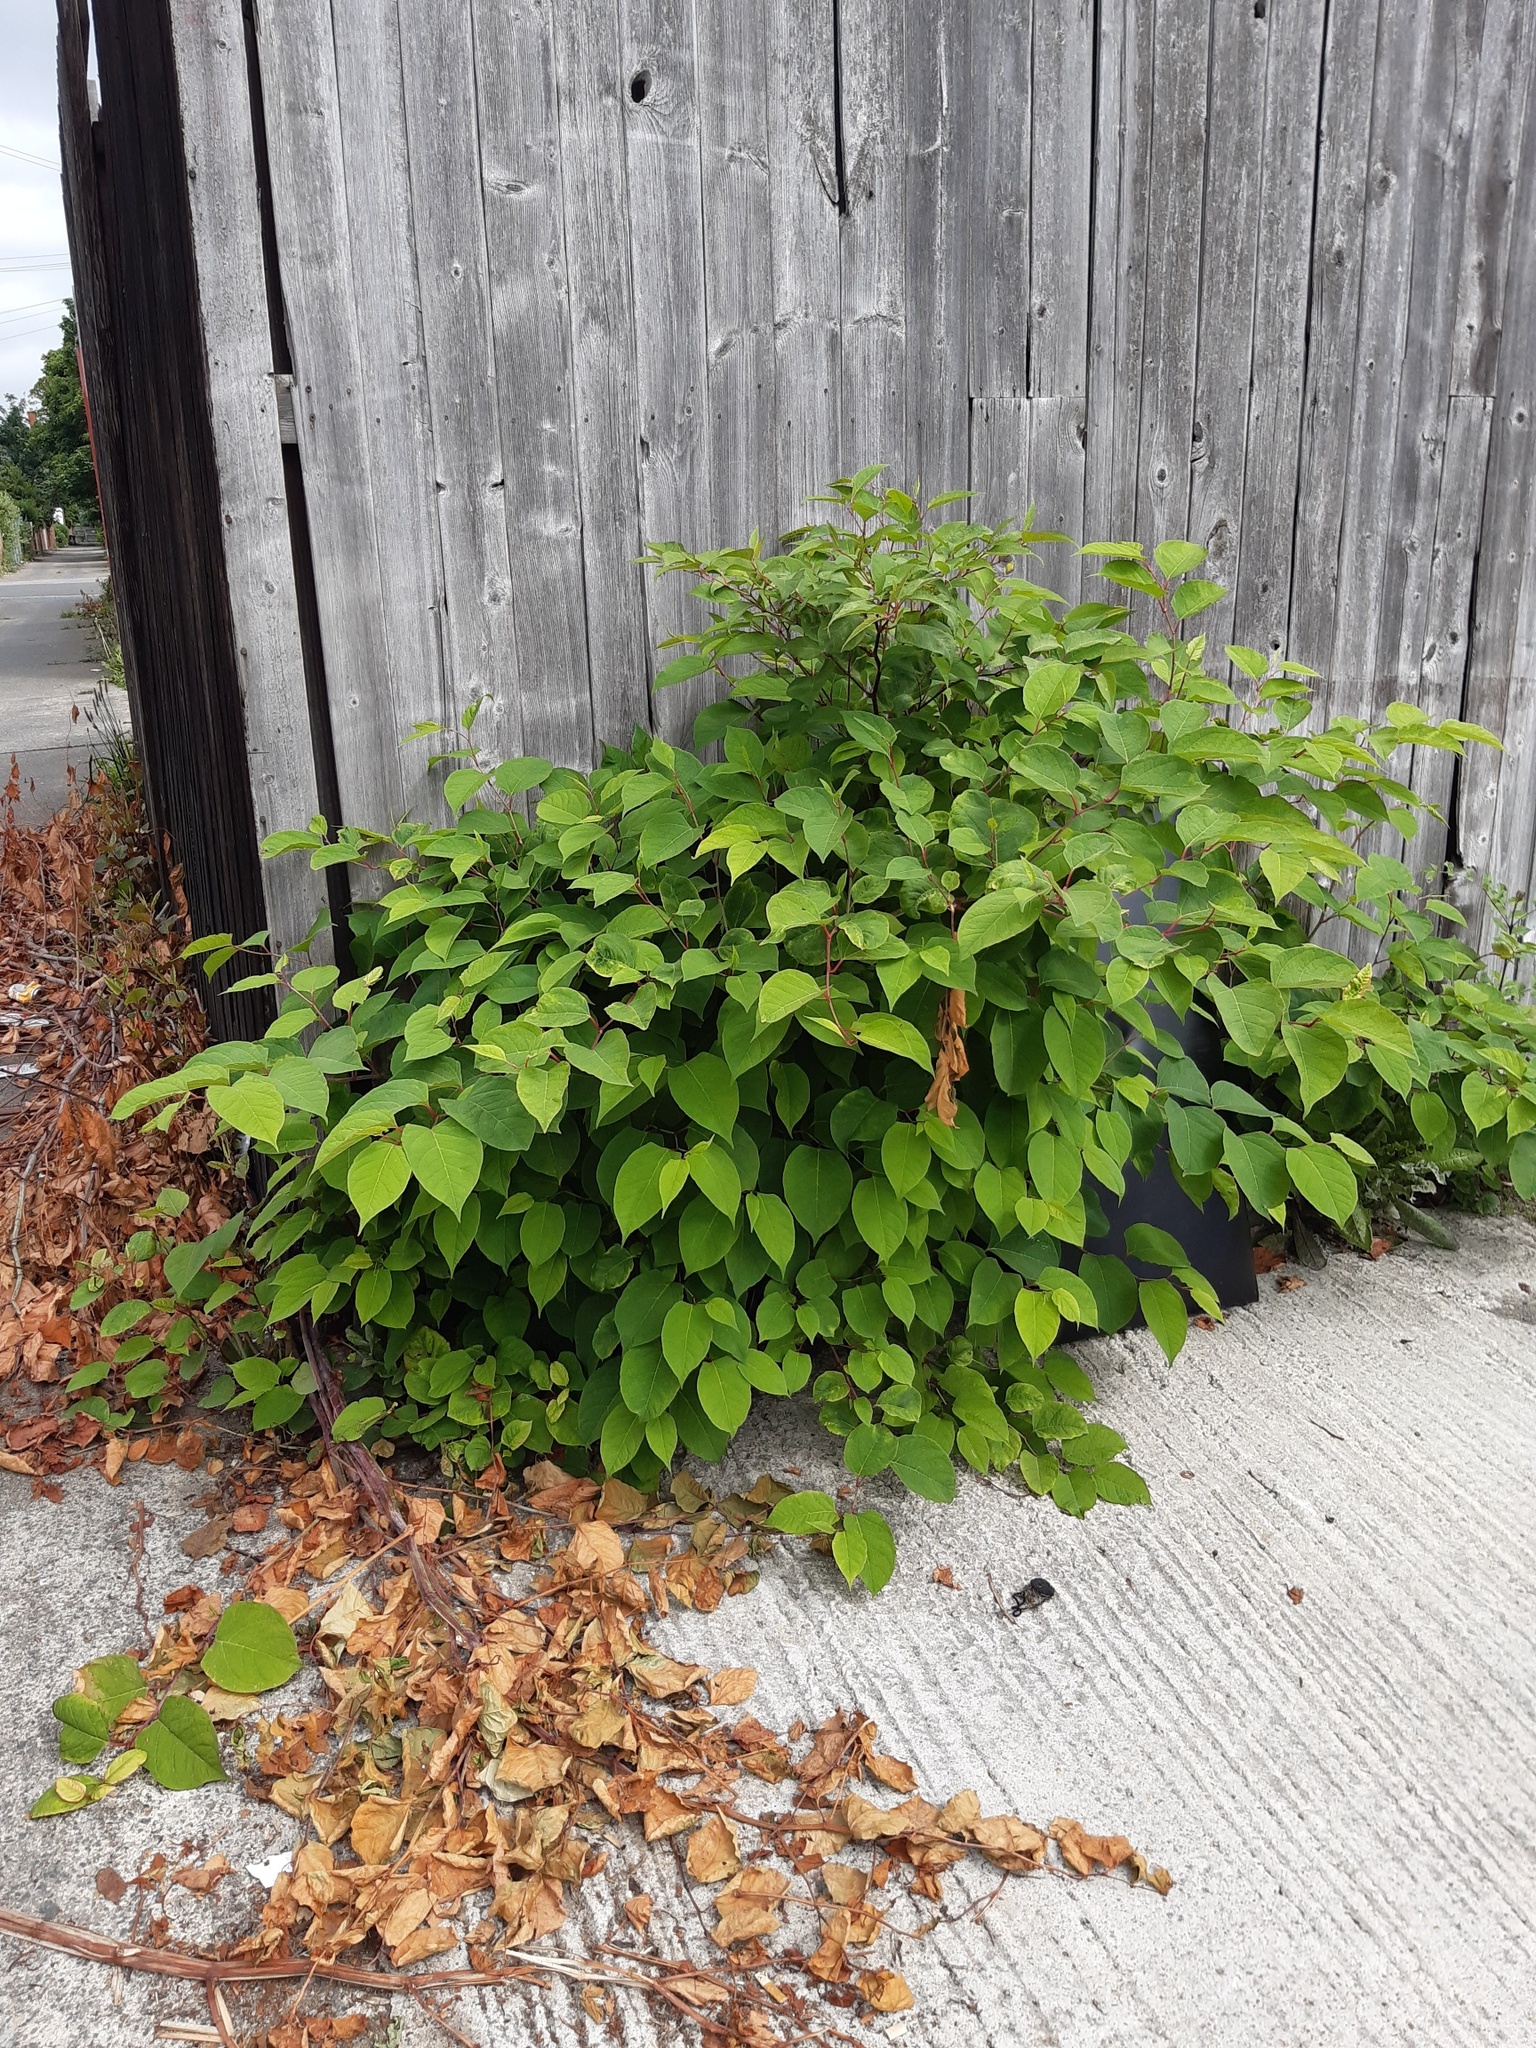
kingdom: Plantae
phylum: Tracheophyta
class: Magnoliopsida
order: Caryophyllales
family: Polygonaceae
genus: Reynoutria
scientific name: Reynoutria japonica
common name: Japanese knotweed
